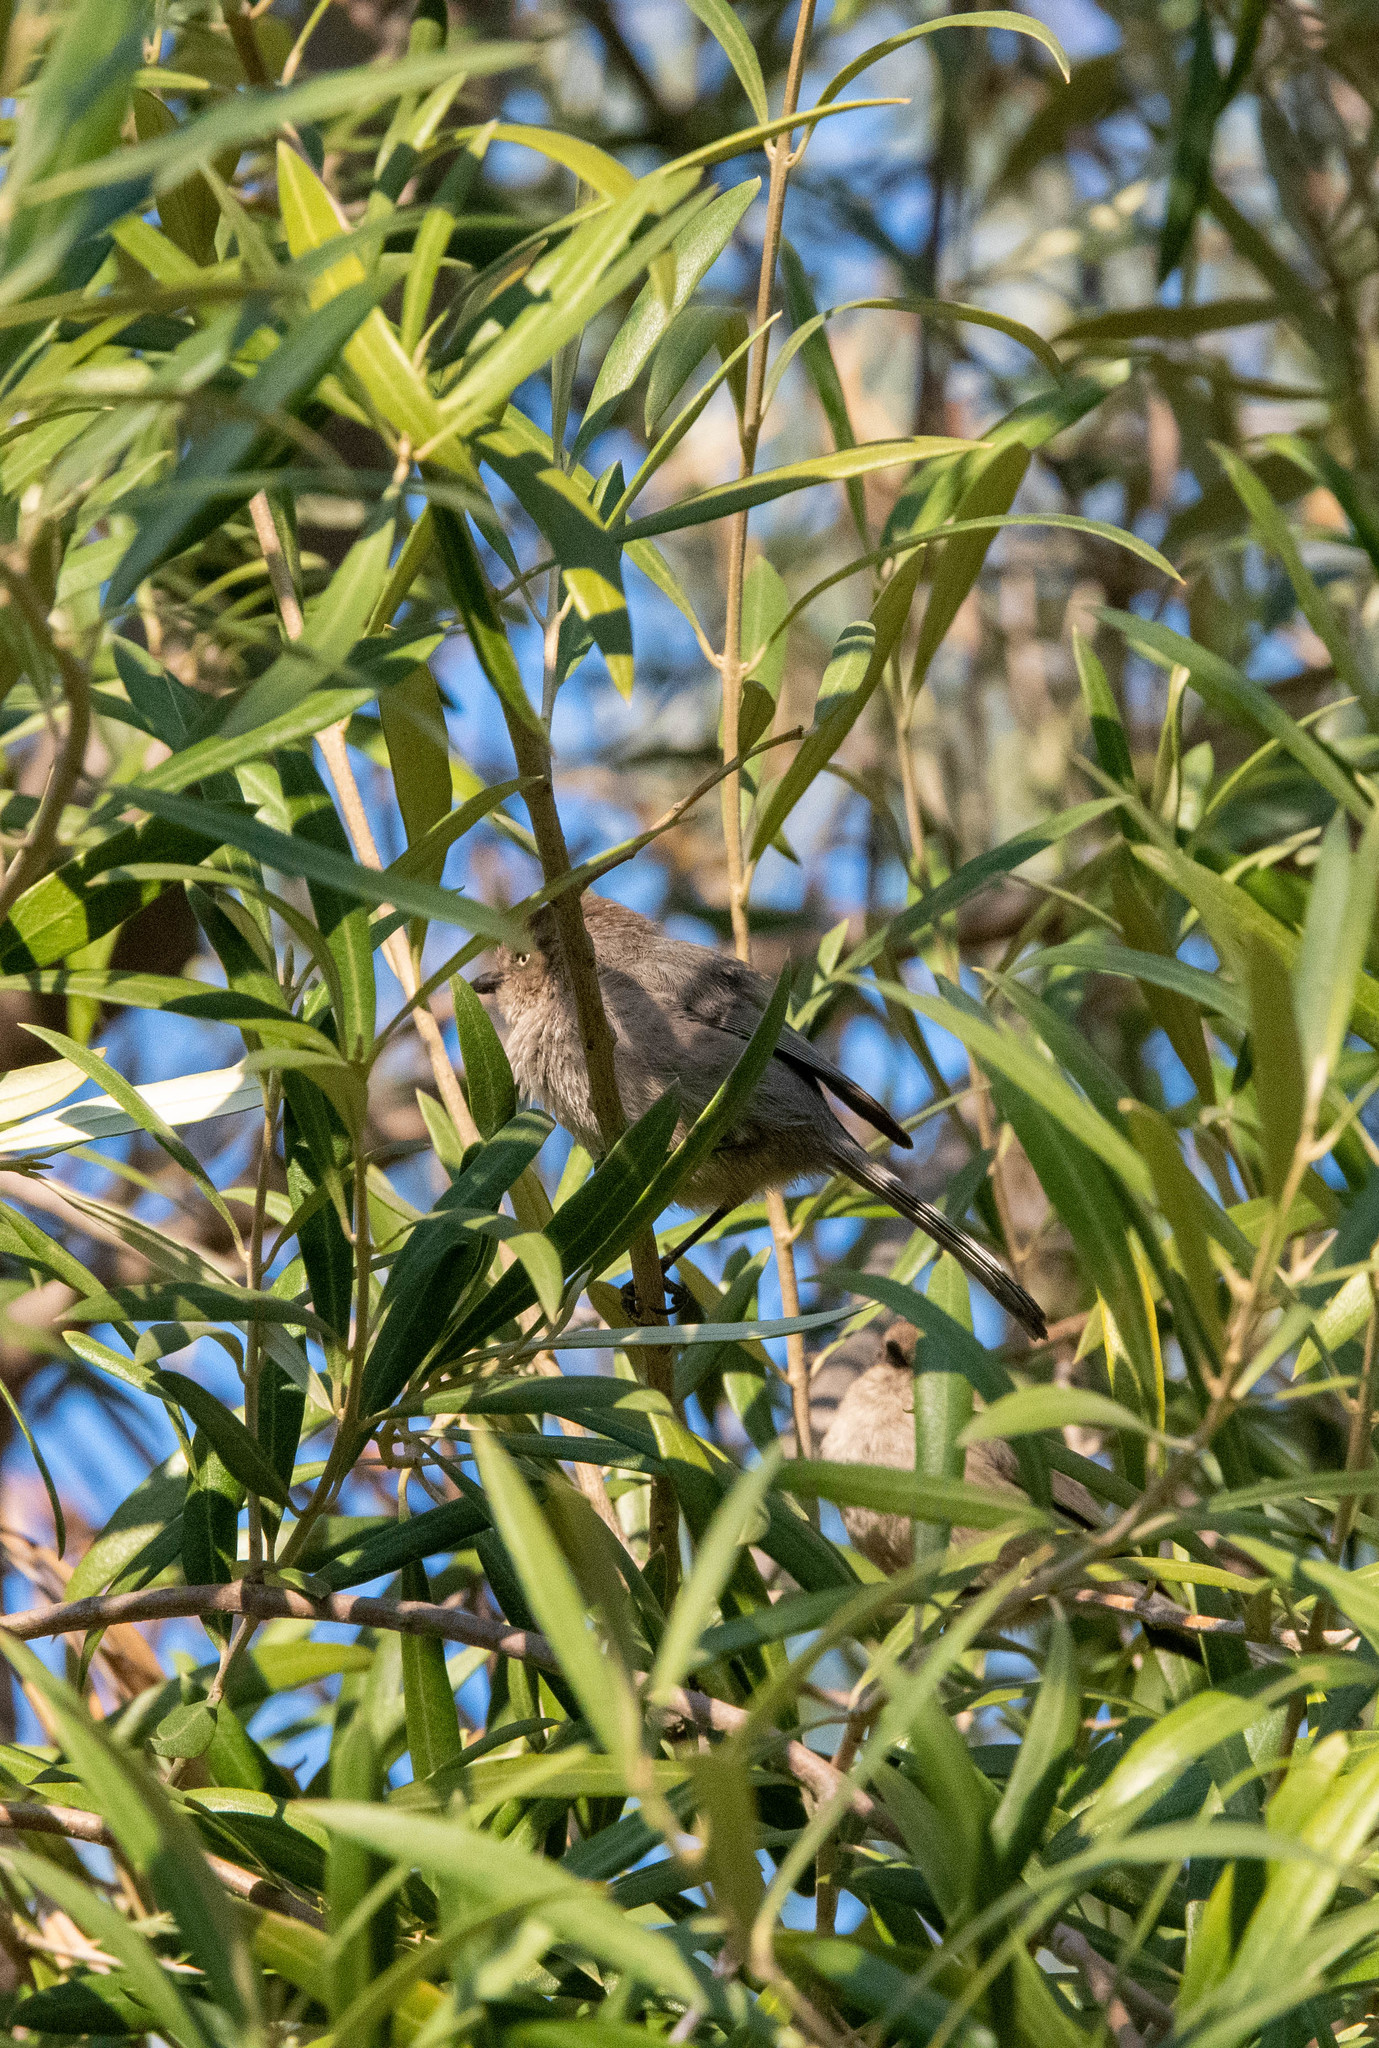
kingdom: Animalia
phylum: Chordata
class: Aves
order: Passeriformes
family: Aegithalidae
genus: Psaltriparus
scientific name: Psaltriparus minimus
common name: American bushtit
